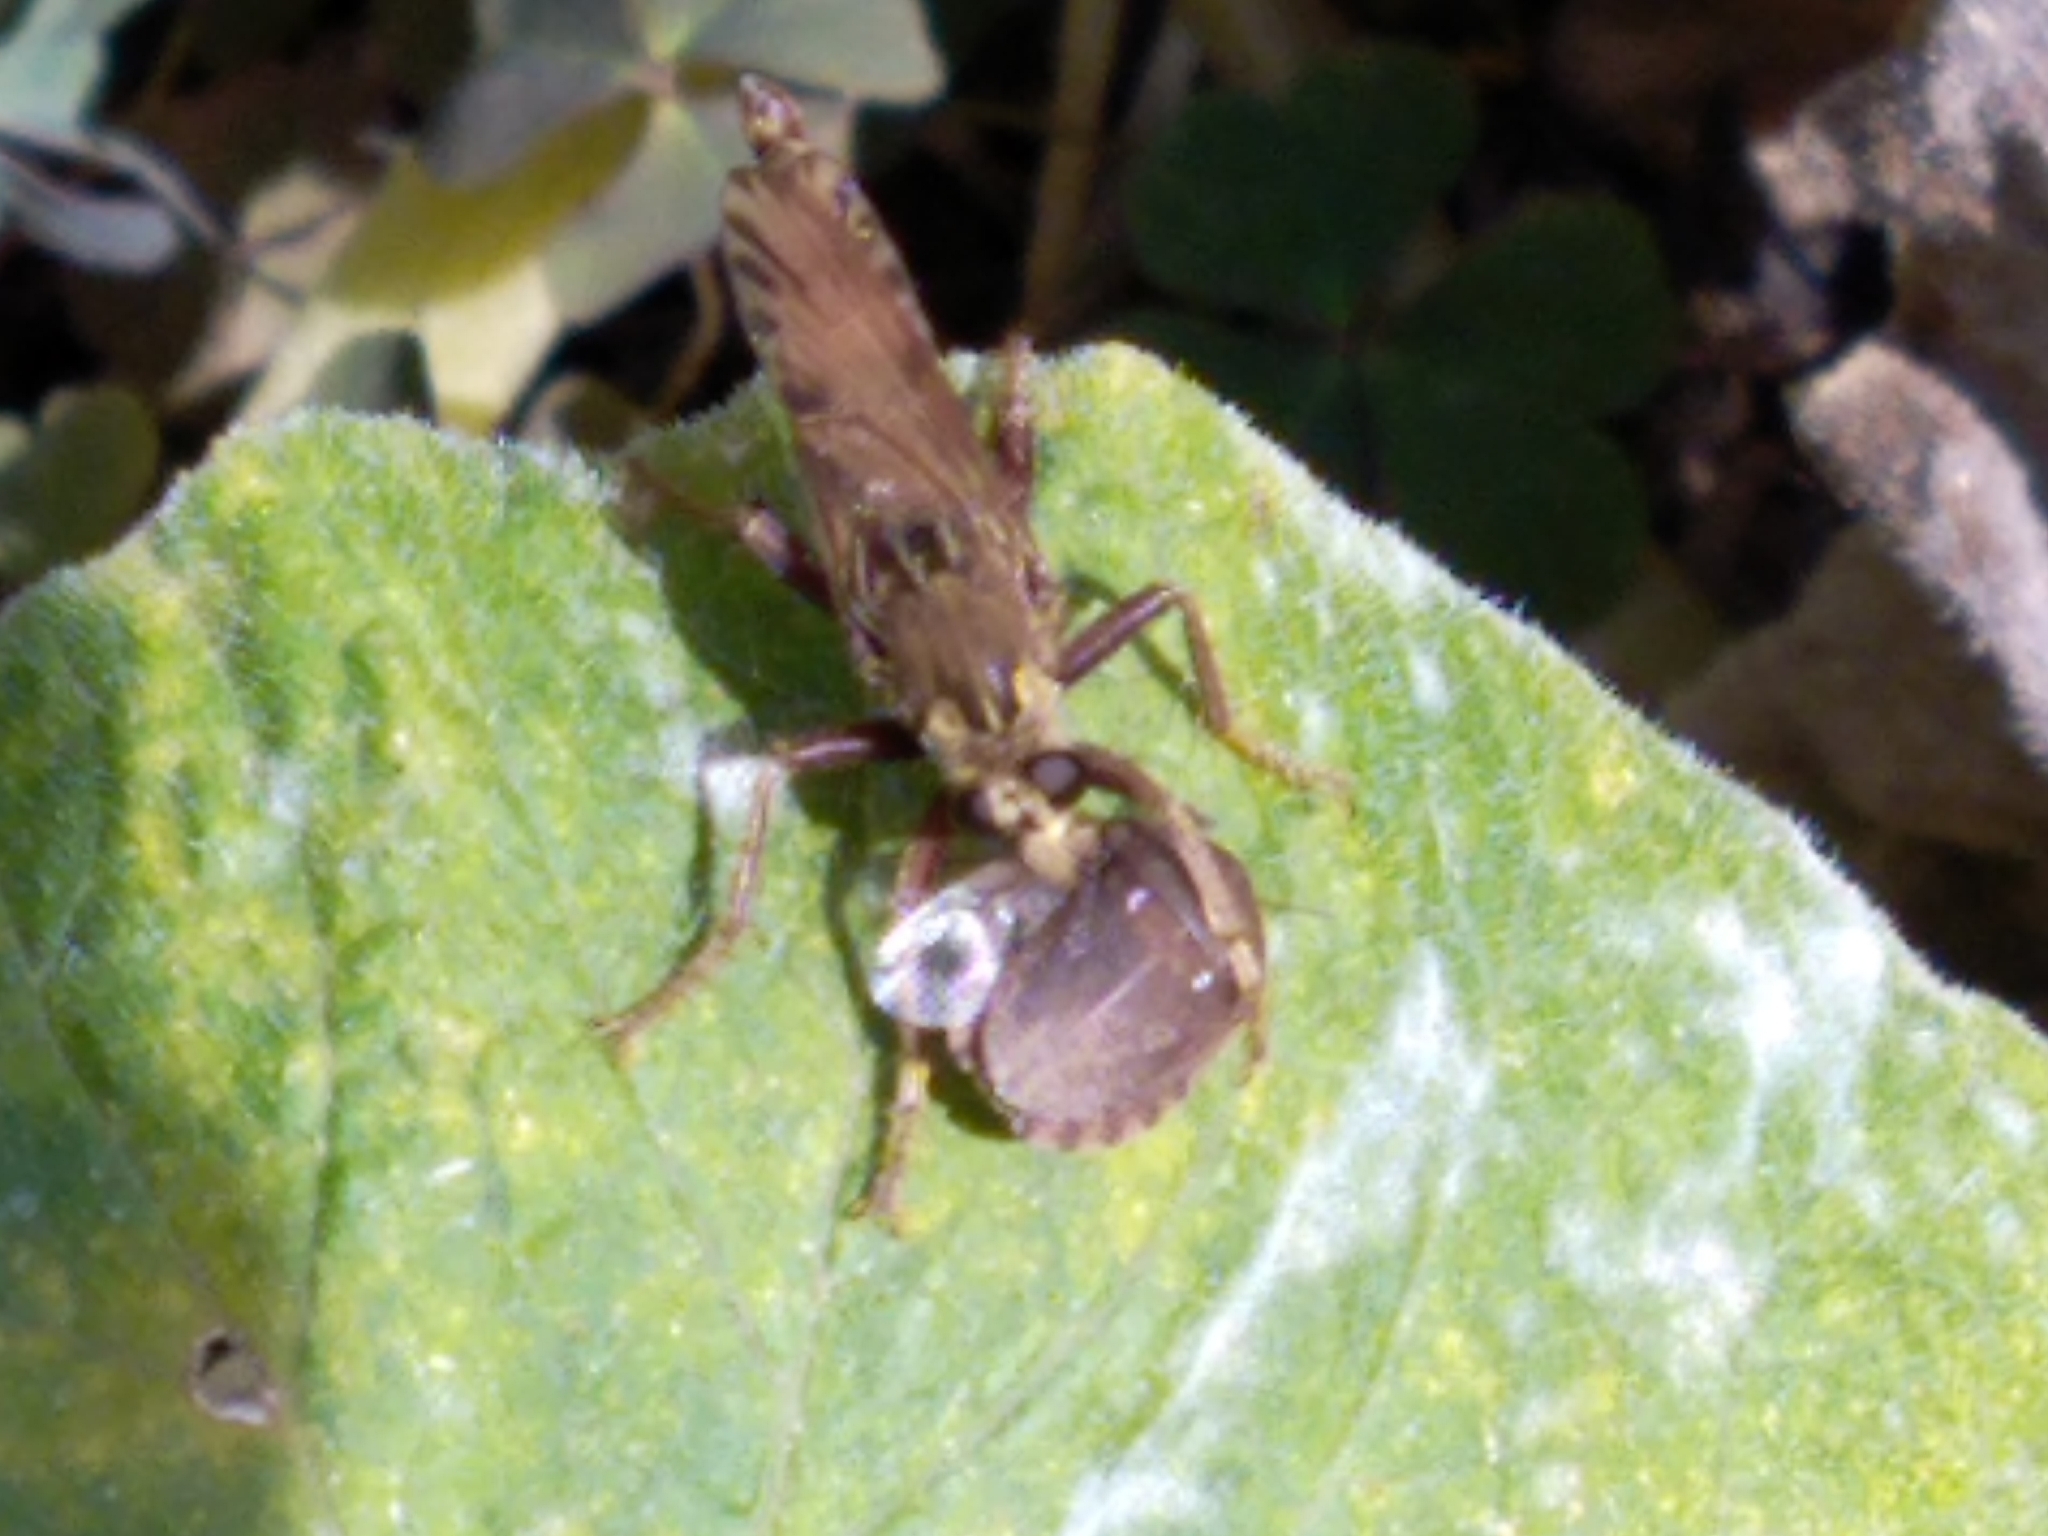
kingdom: Animalia
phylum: Arthropoda
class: Insecta
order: Diptera
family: Asilidae
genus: Asilus
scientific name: Asilus crabroniformis
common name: Hornet robberfly
